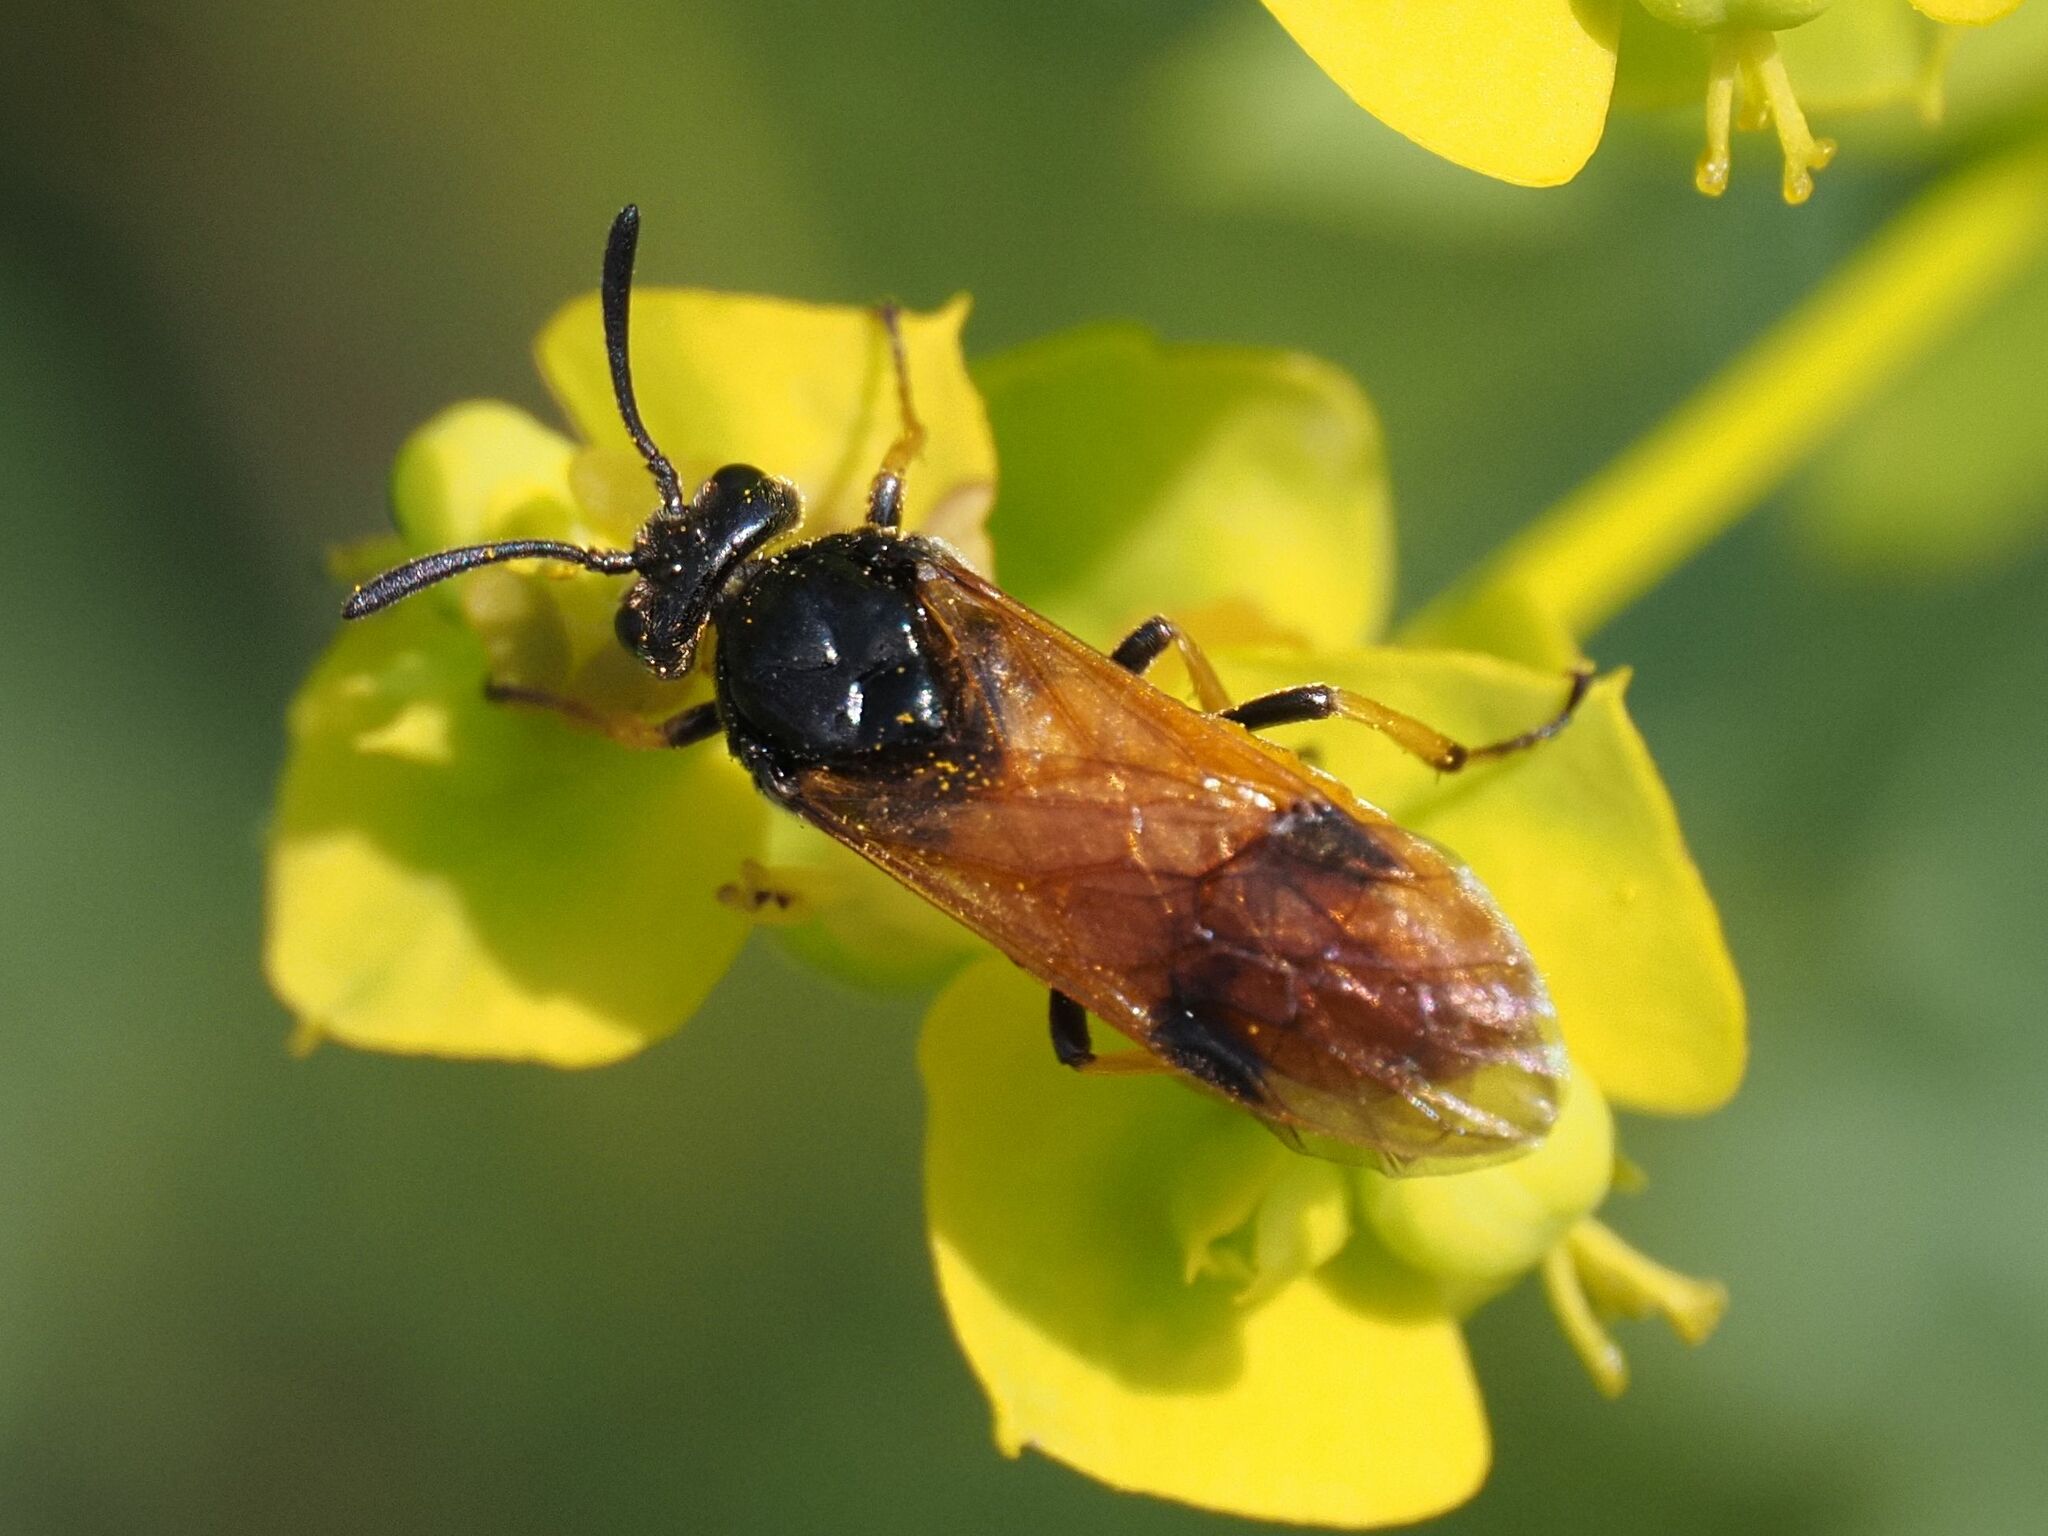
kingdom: Animalia
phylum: Arthropoda
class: Insecta
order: Hymenoptera
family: Argidae
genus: Arge
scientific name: Arge melanochra
